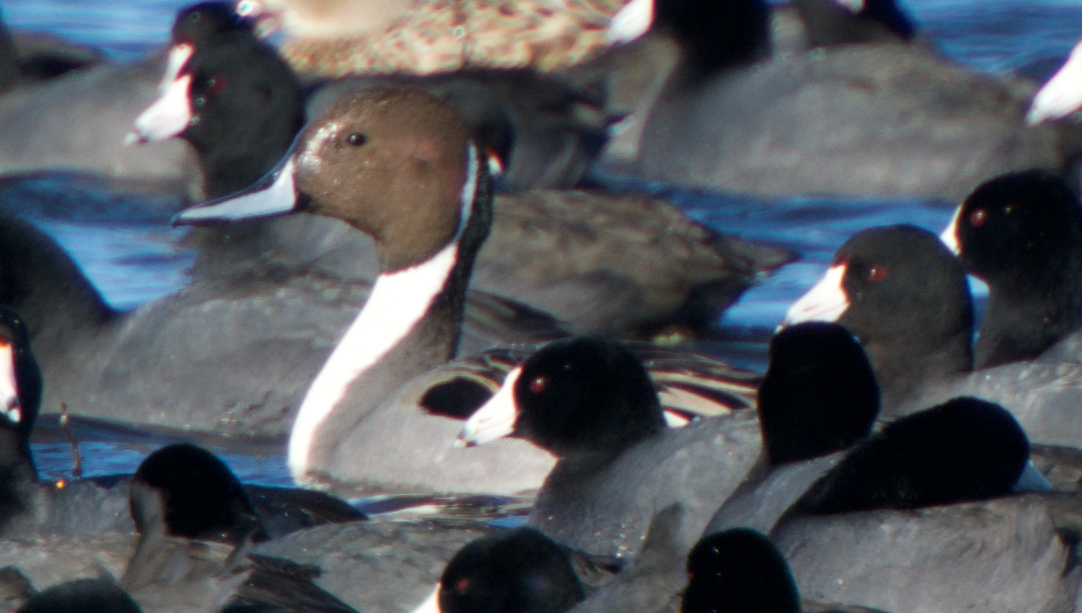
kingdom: Animalia
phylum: Chordata
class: Aves
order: Anseriformes
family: Anatidae
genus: Anas
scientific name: Anas acuta
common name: Northern pintail
